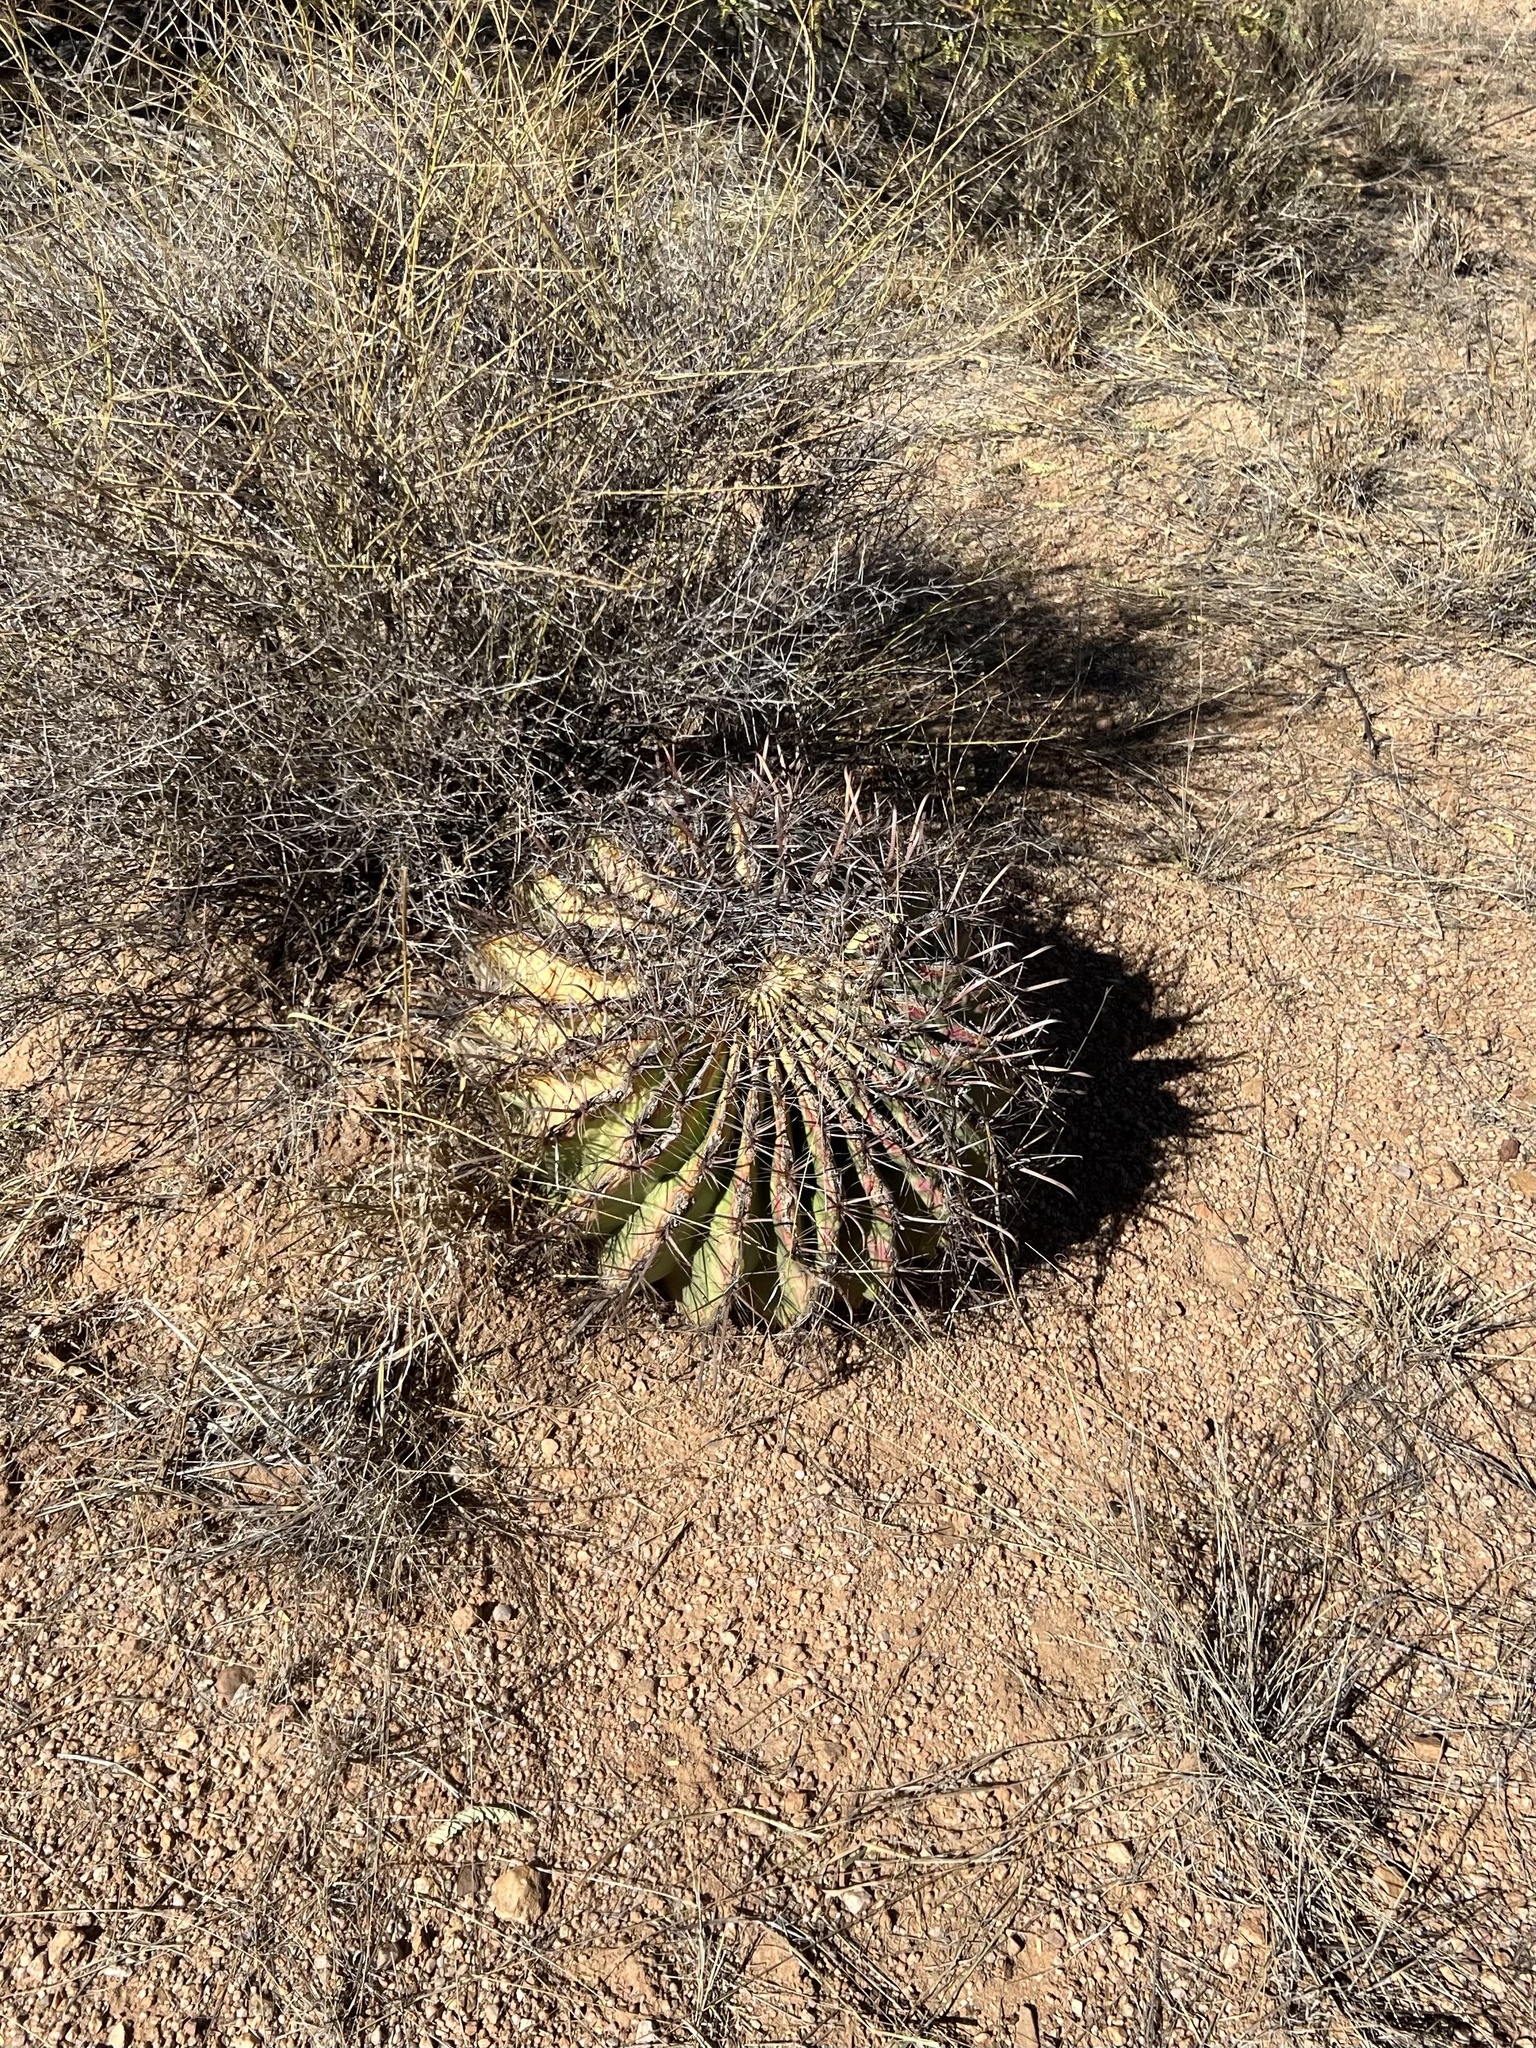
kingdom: Plantae
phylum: Tracheophyta
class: Magnoliopsida
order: Caryophyllales
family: Cactaceae
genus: Ferocactus
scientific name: Ferocactus wislizeni
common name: Candy barrel cactus
